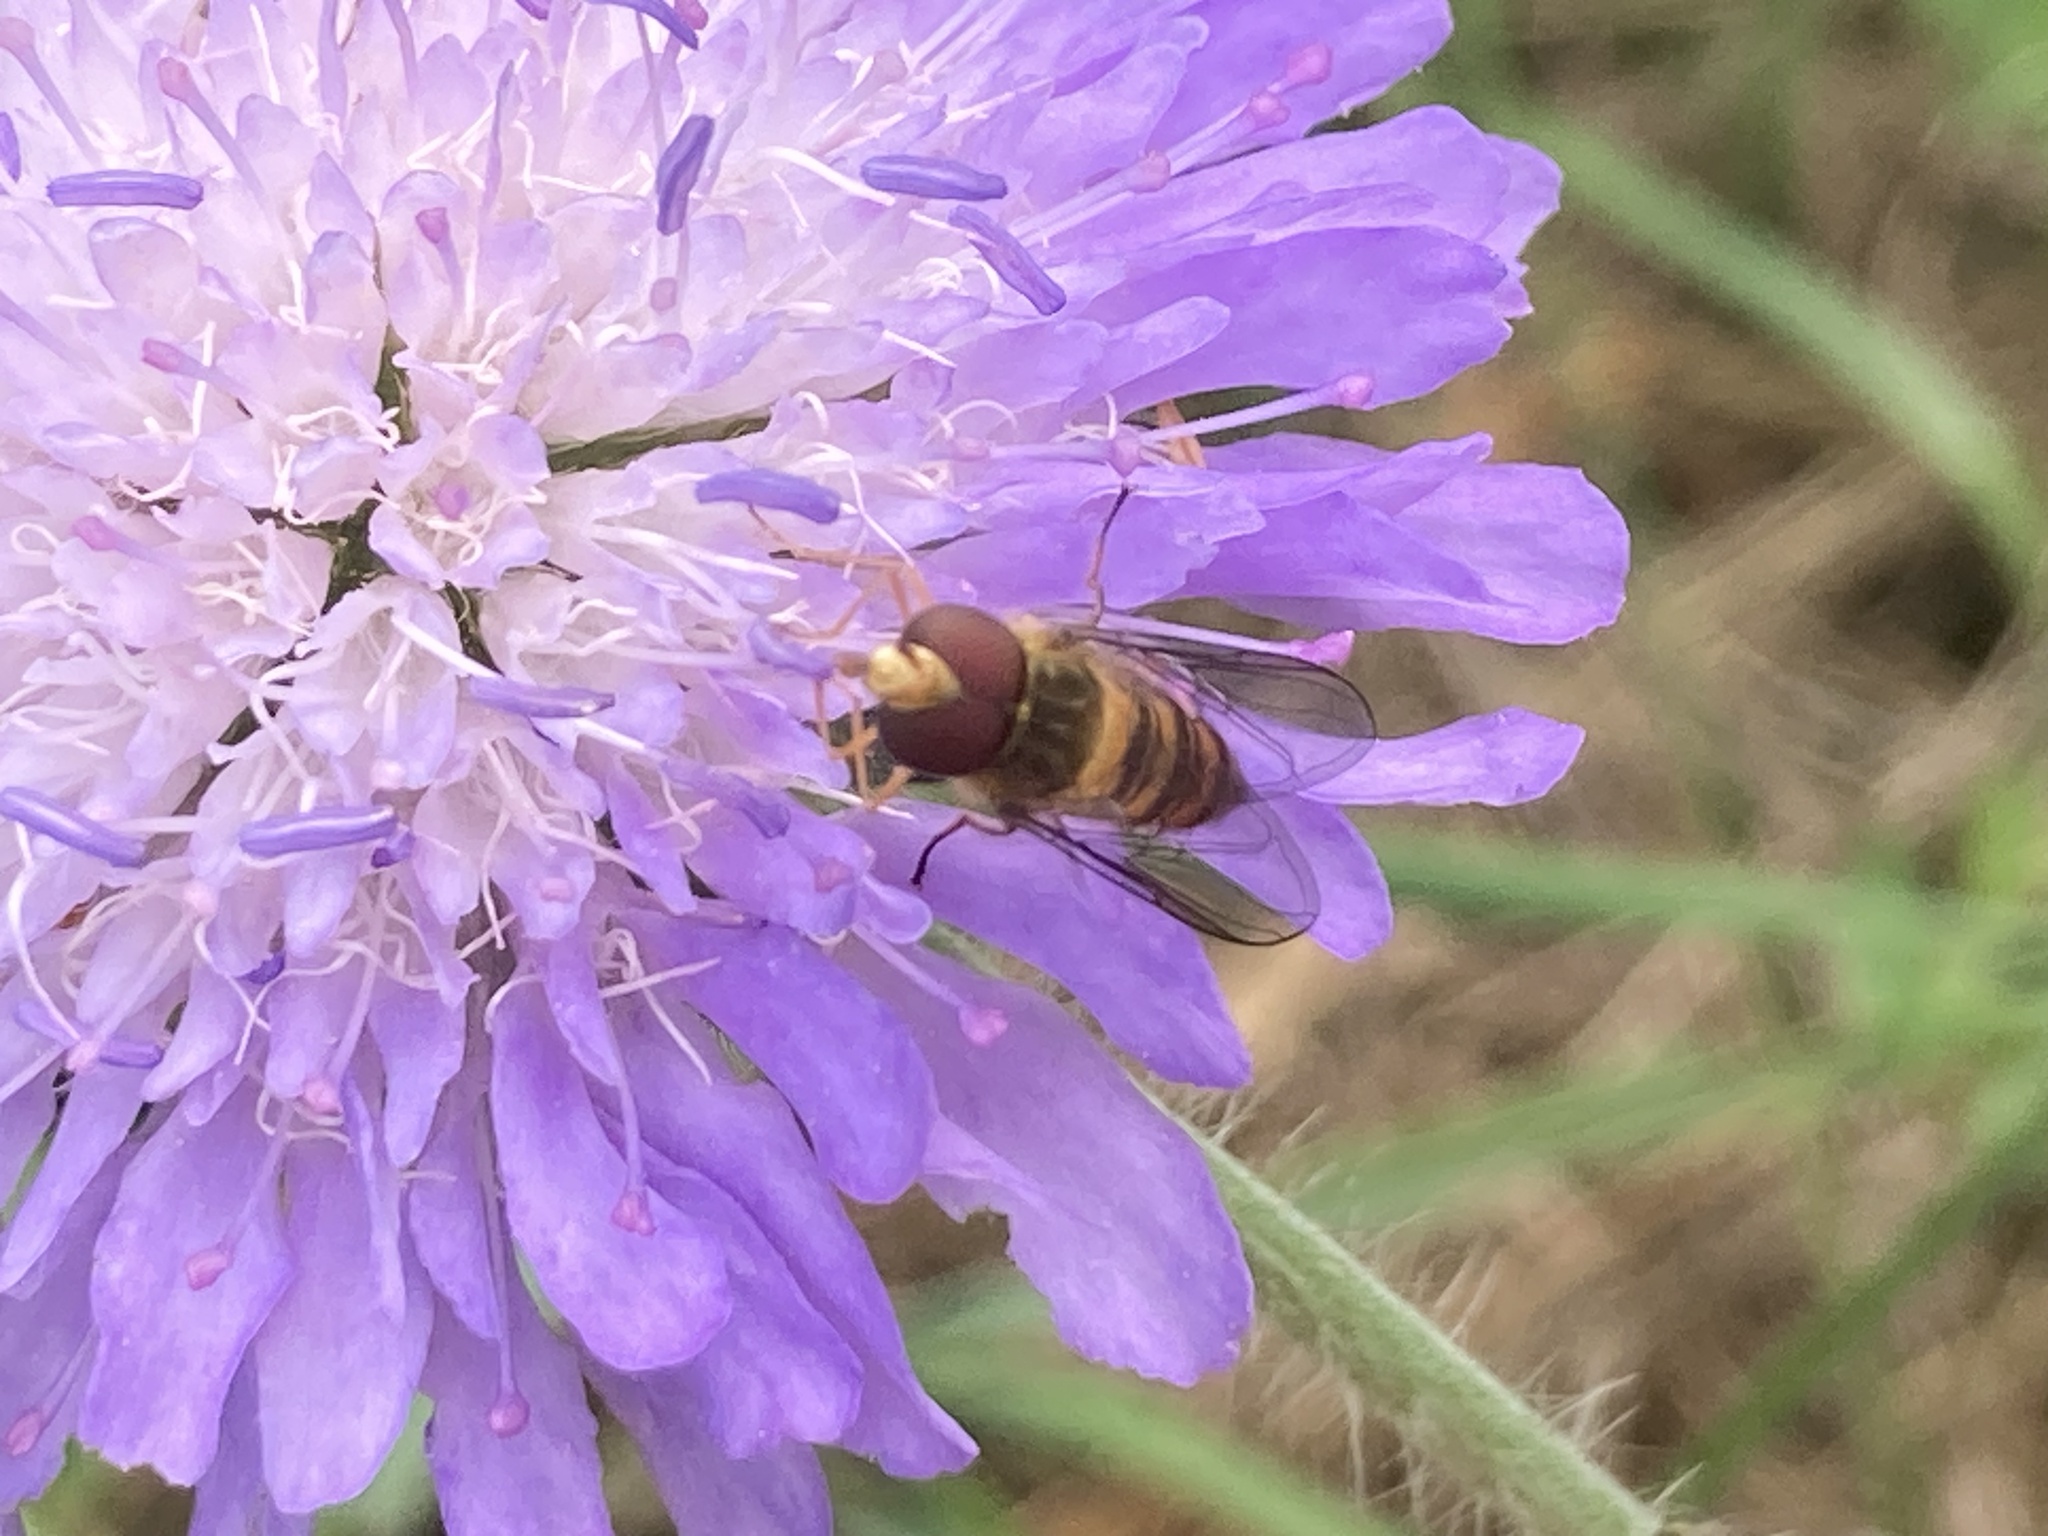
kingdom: Animalia
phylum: Arthropoda
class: Insecta
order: Diptera
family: Syrphidae
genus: Episyrphus
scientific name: Episyrphus balteatus
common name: Marmalade hoverfly
